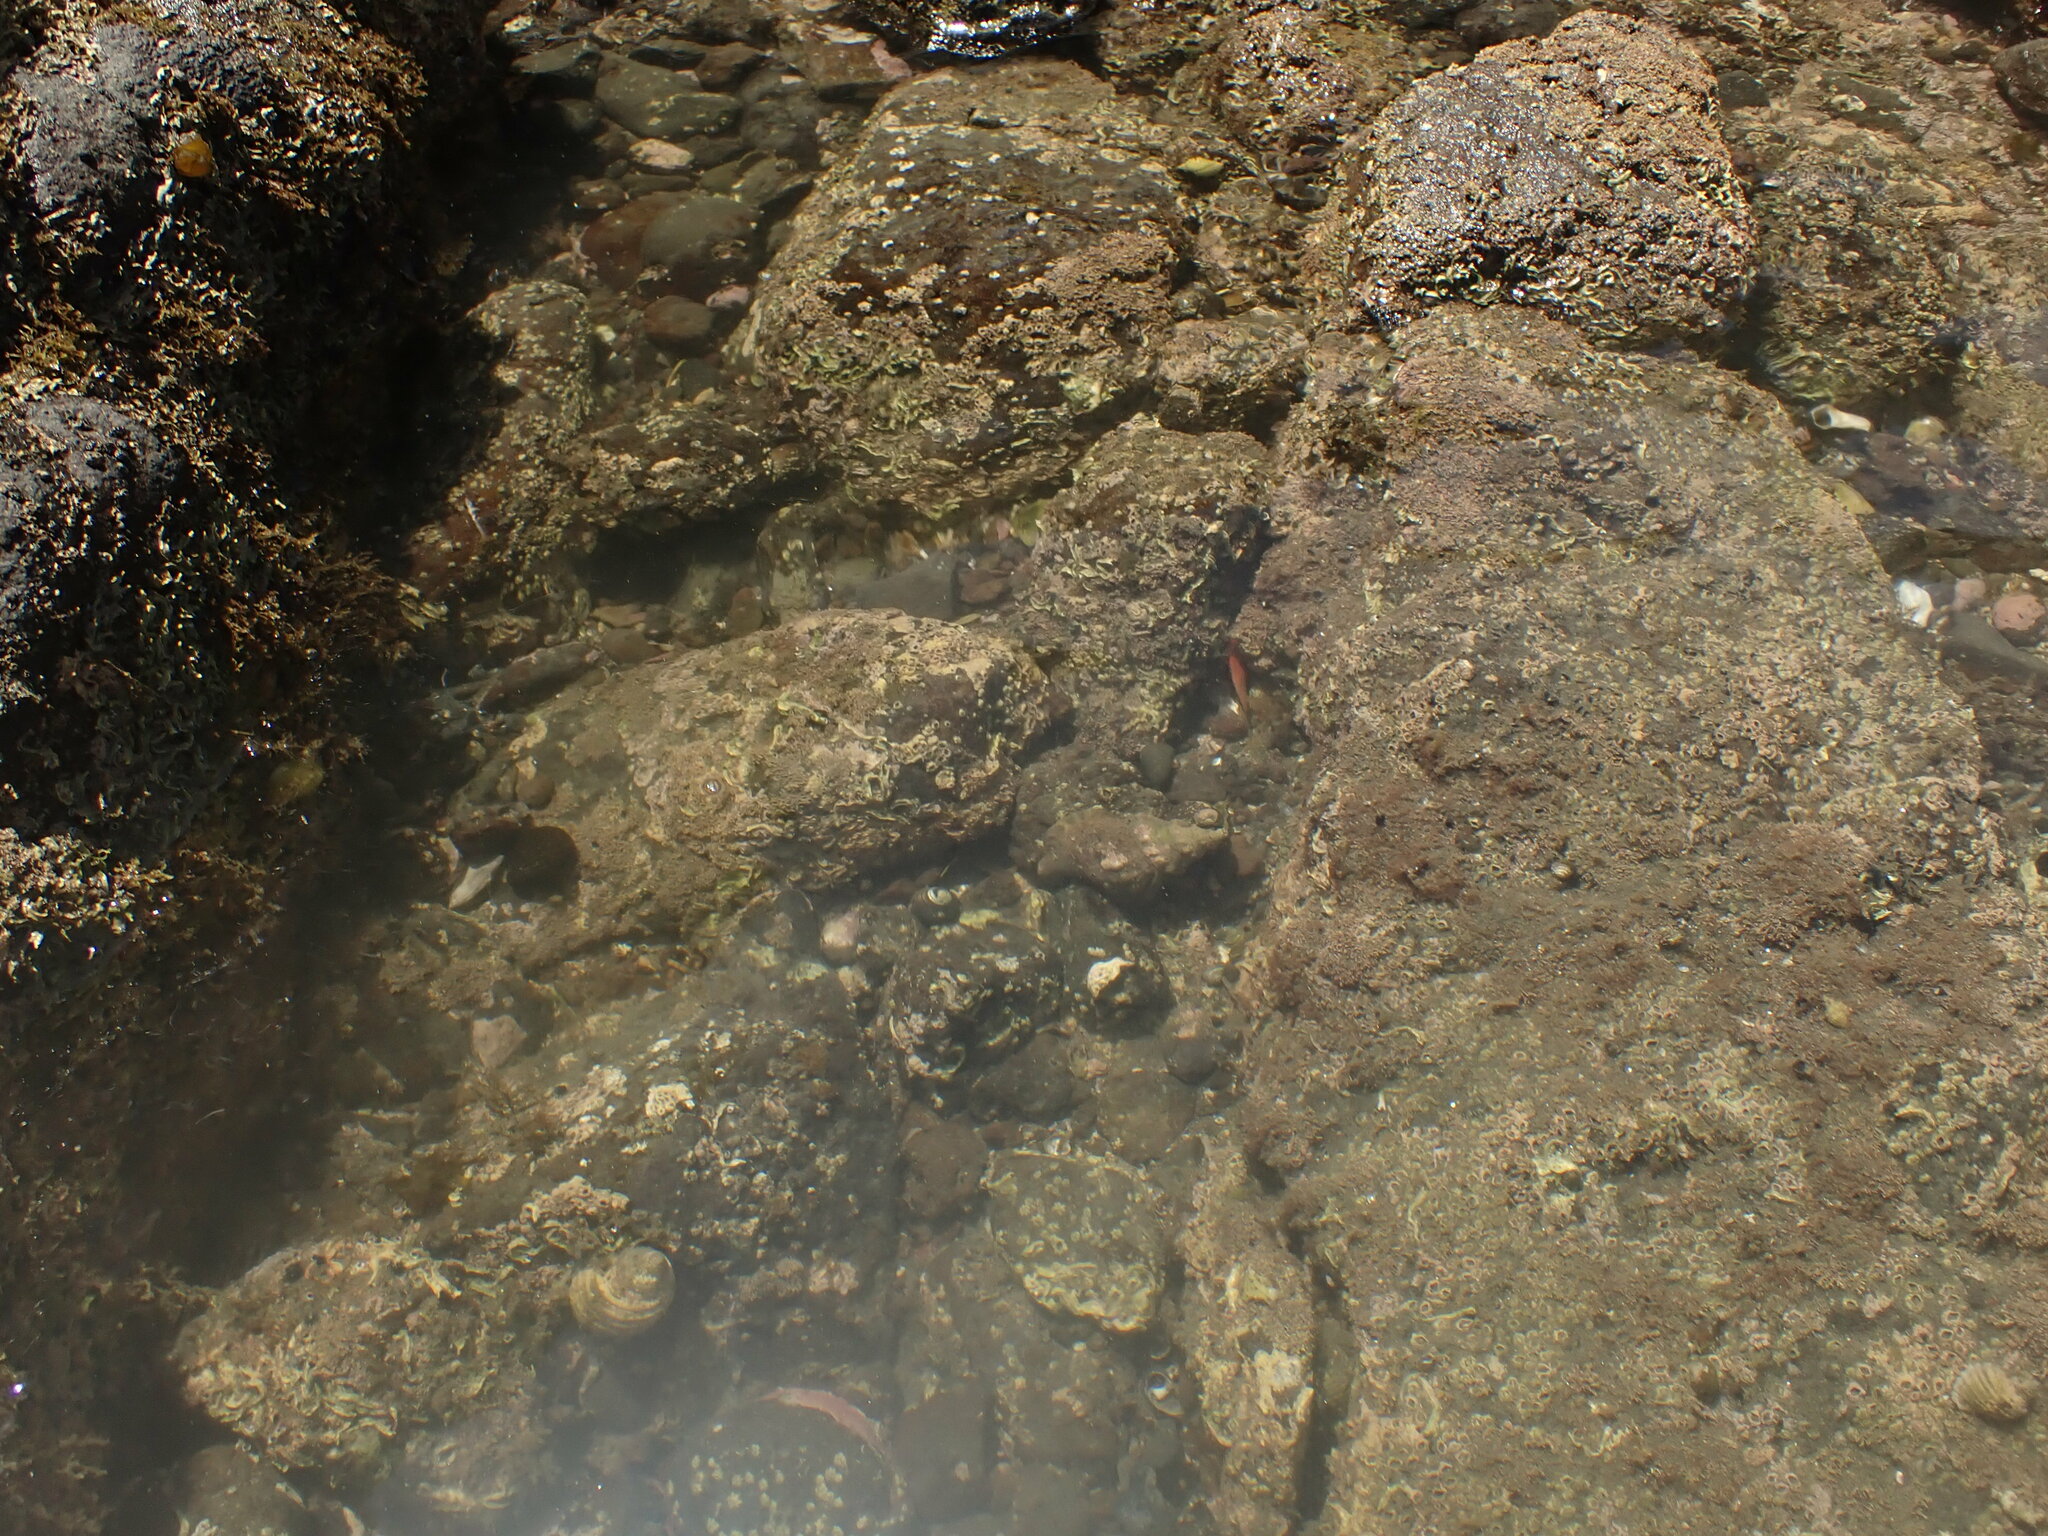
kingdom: Animalia
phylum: Mollusca
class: Gastropoda
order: Littorinimorpha
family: Ranellidae
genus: Ranella
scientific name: Ranella australasia
